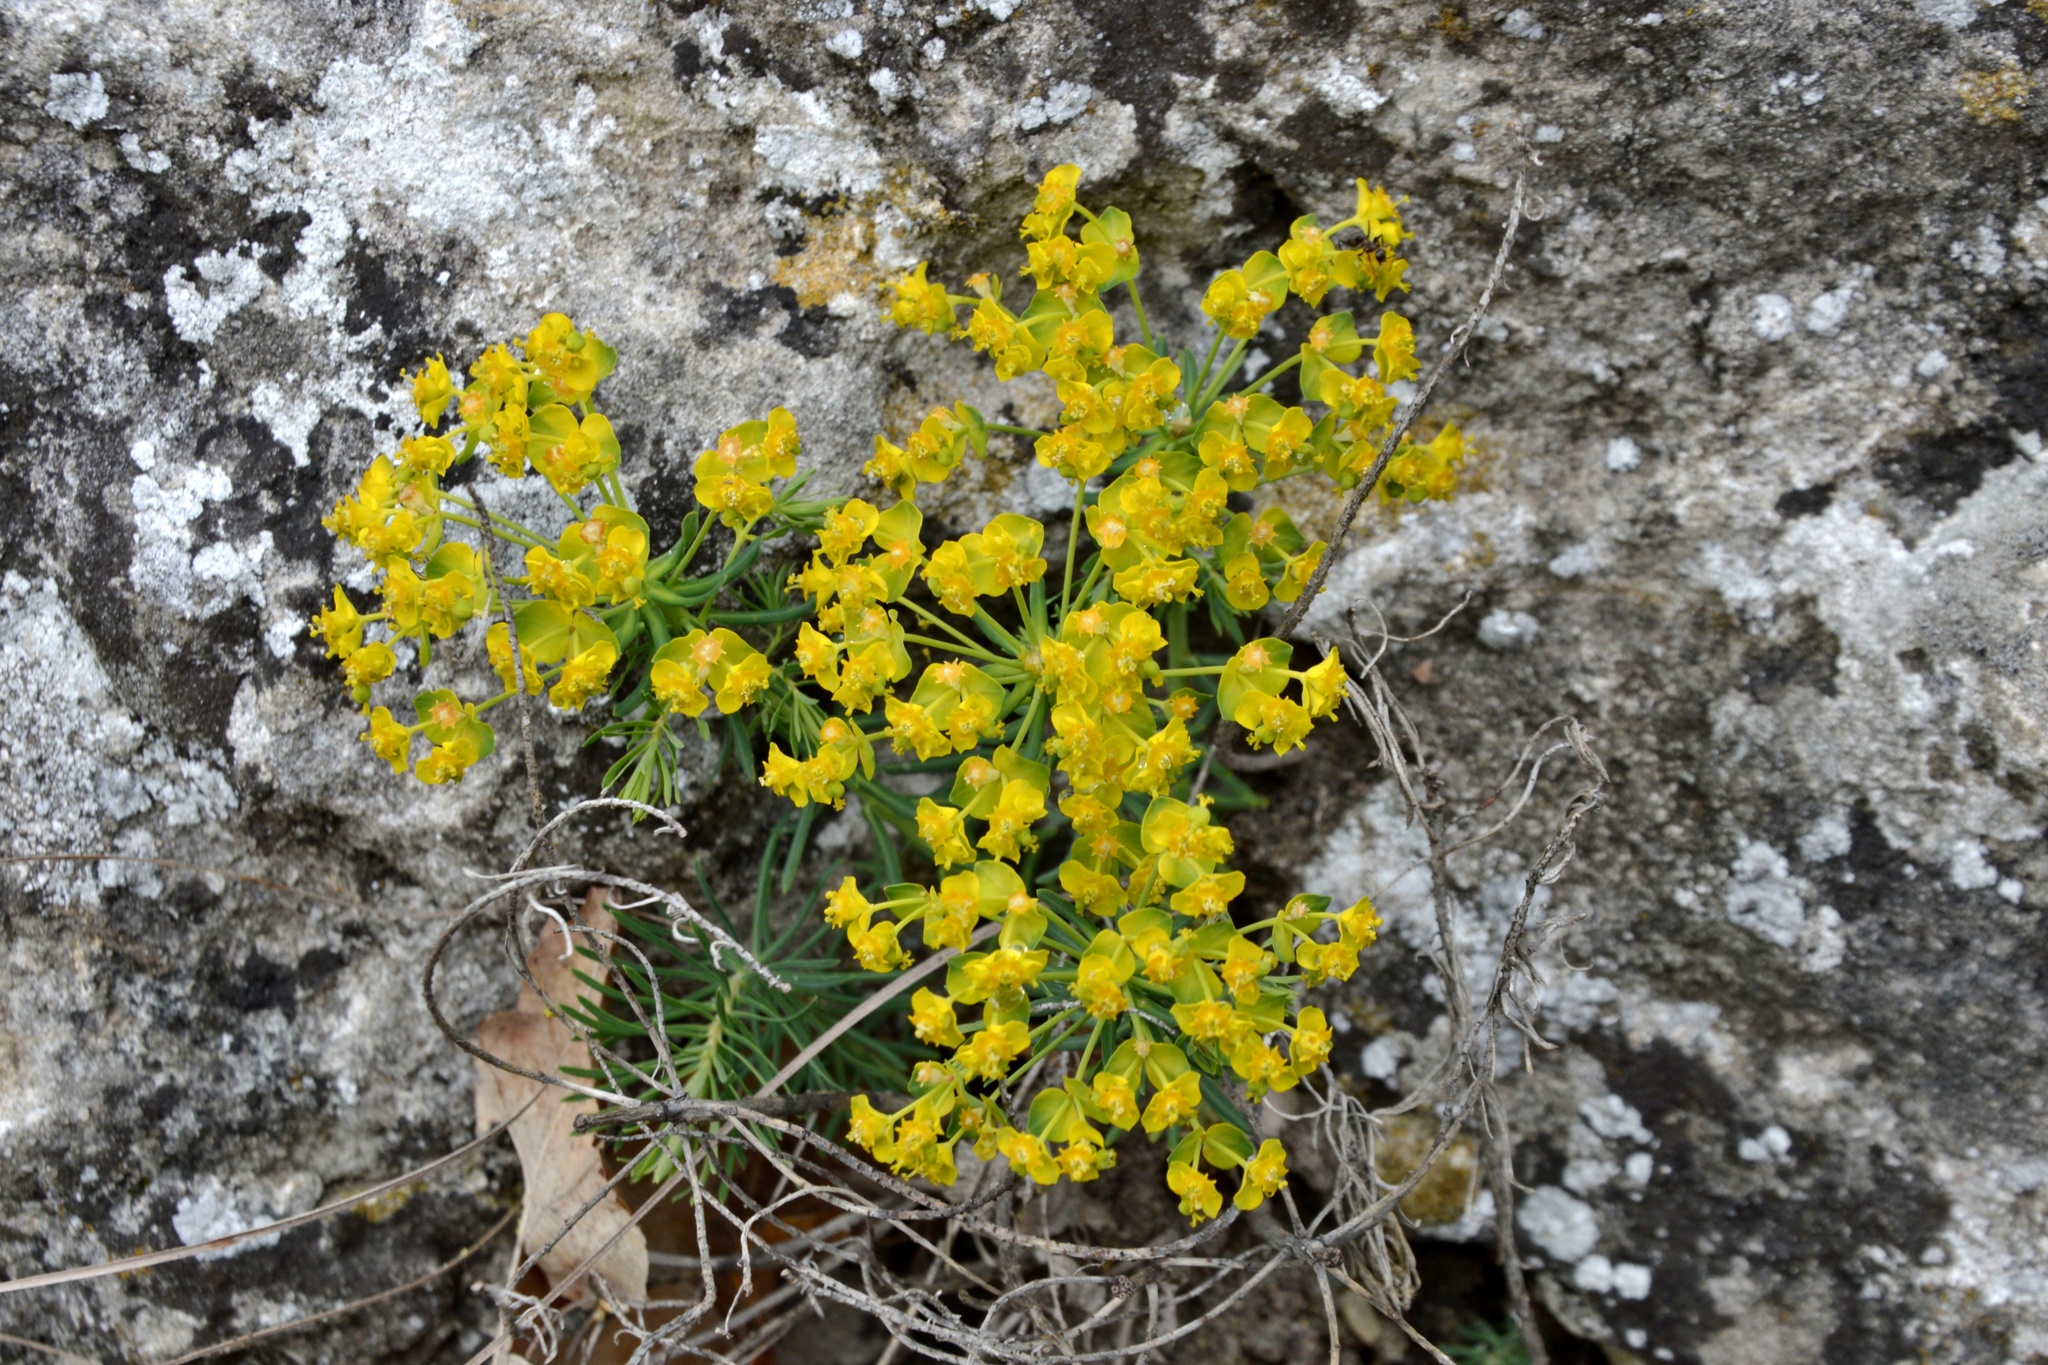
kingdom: Plantae
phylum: Tracheophyta
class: Magnoliopsida
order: Malpighiales
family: Euphorbiaceae
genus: Euphorbia
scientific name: Euphorbia cyparissias
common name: Cypress spurge
